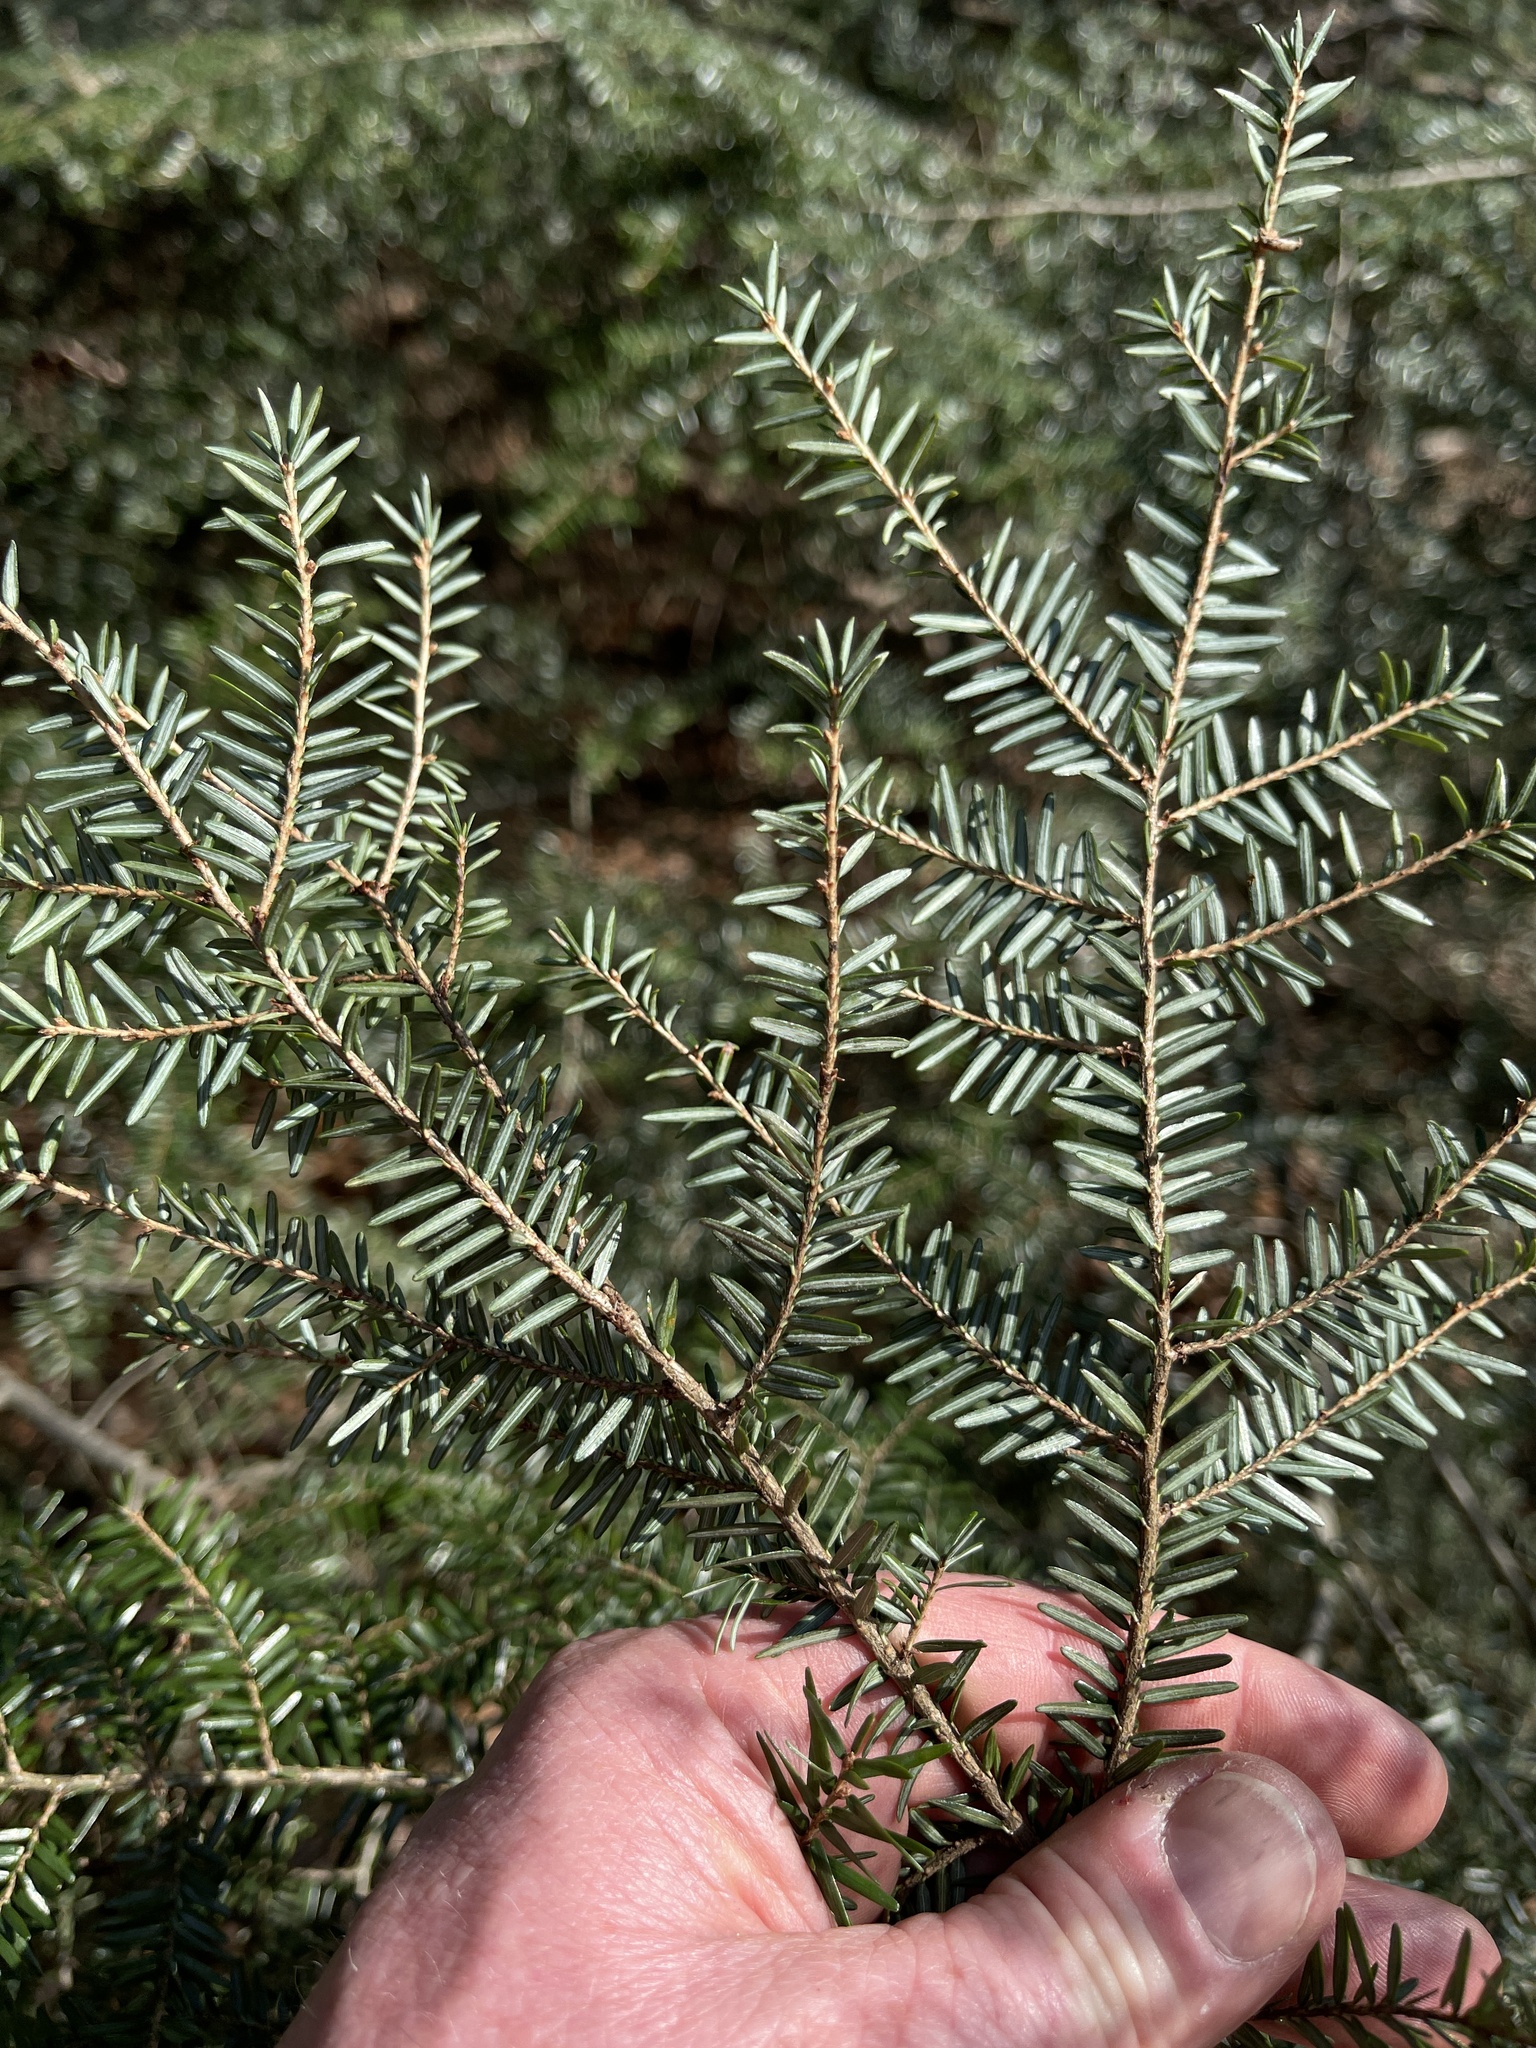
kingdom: Plantae
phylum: Tracheophyta
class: Pinopsida
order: Pinales
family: Pinaceae
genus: Tsuga
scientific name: Tsuga canadensis
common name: Eastern hemlock
